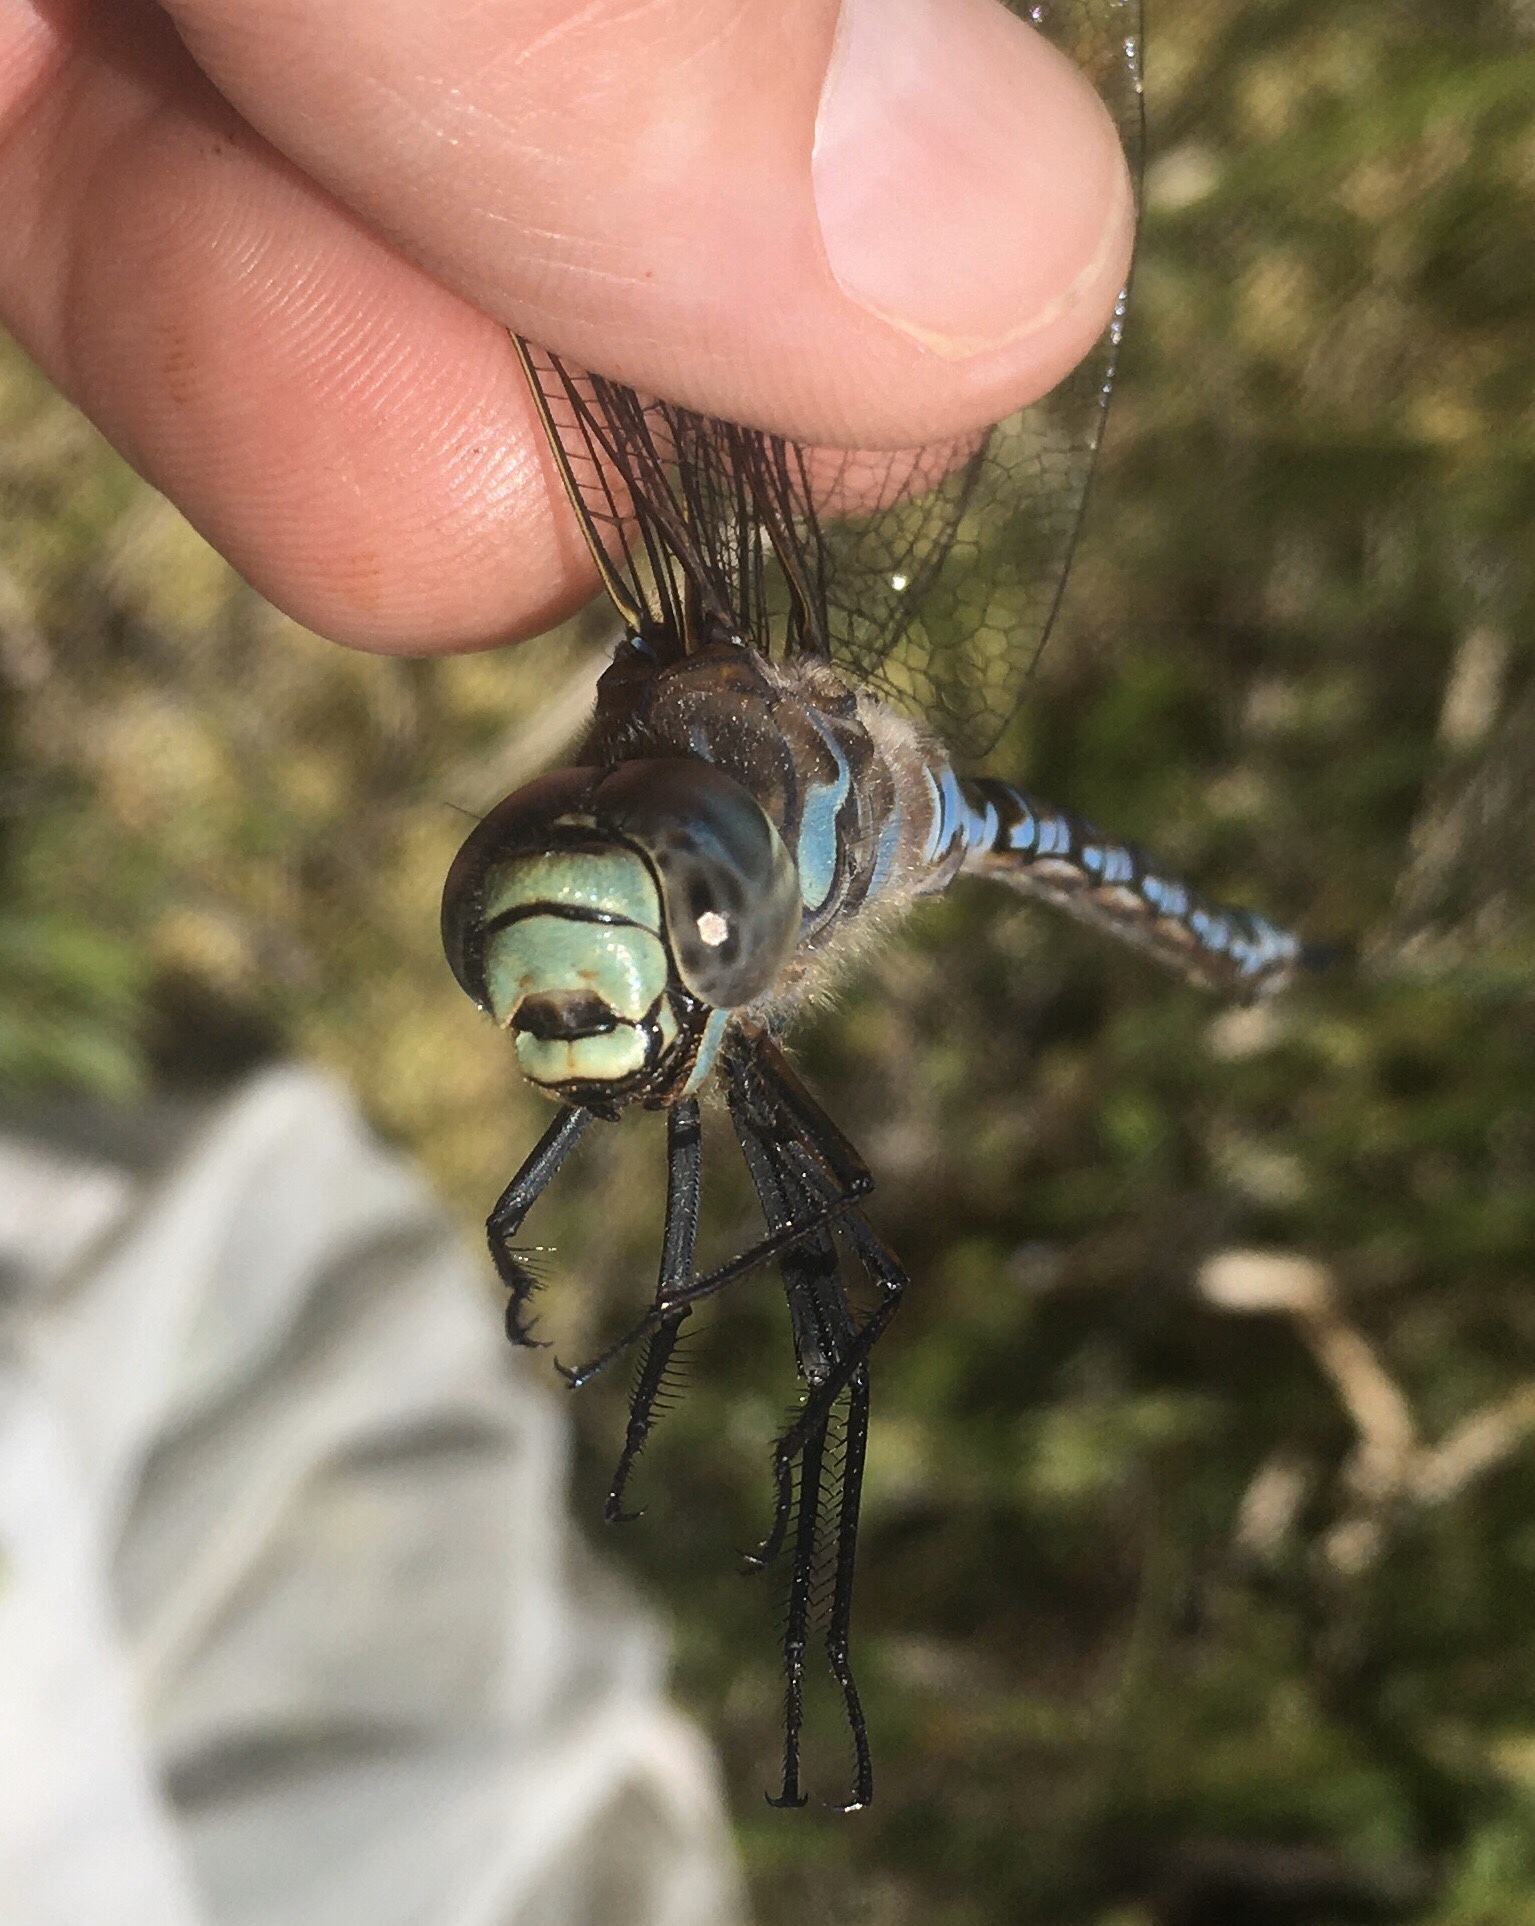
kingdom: Animalia
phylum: Arthropoda
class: Insecta
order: Odonata
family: Aeshnidae
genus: Aeshna
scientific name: Aeshna eremita
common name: Lake darner
